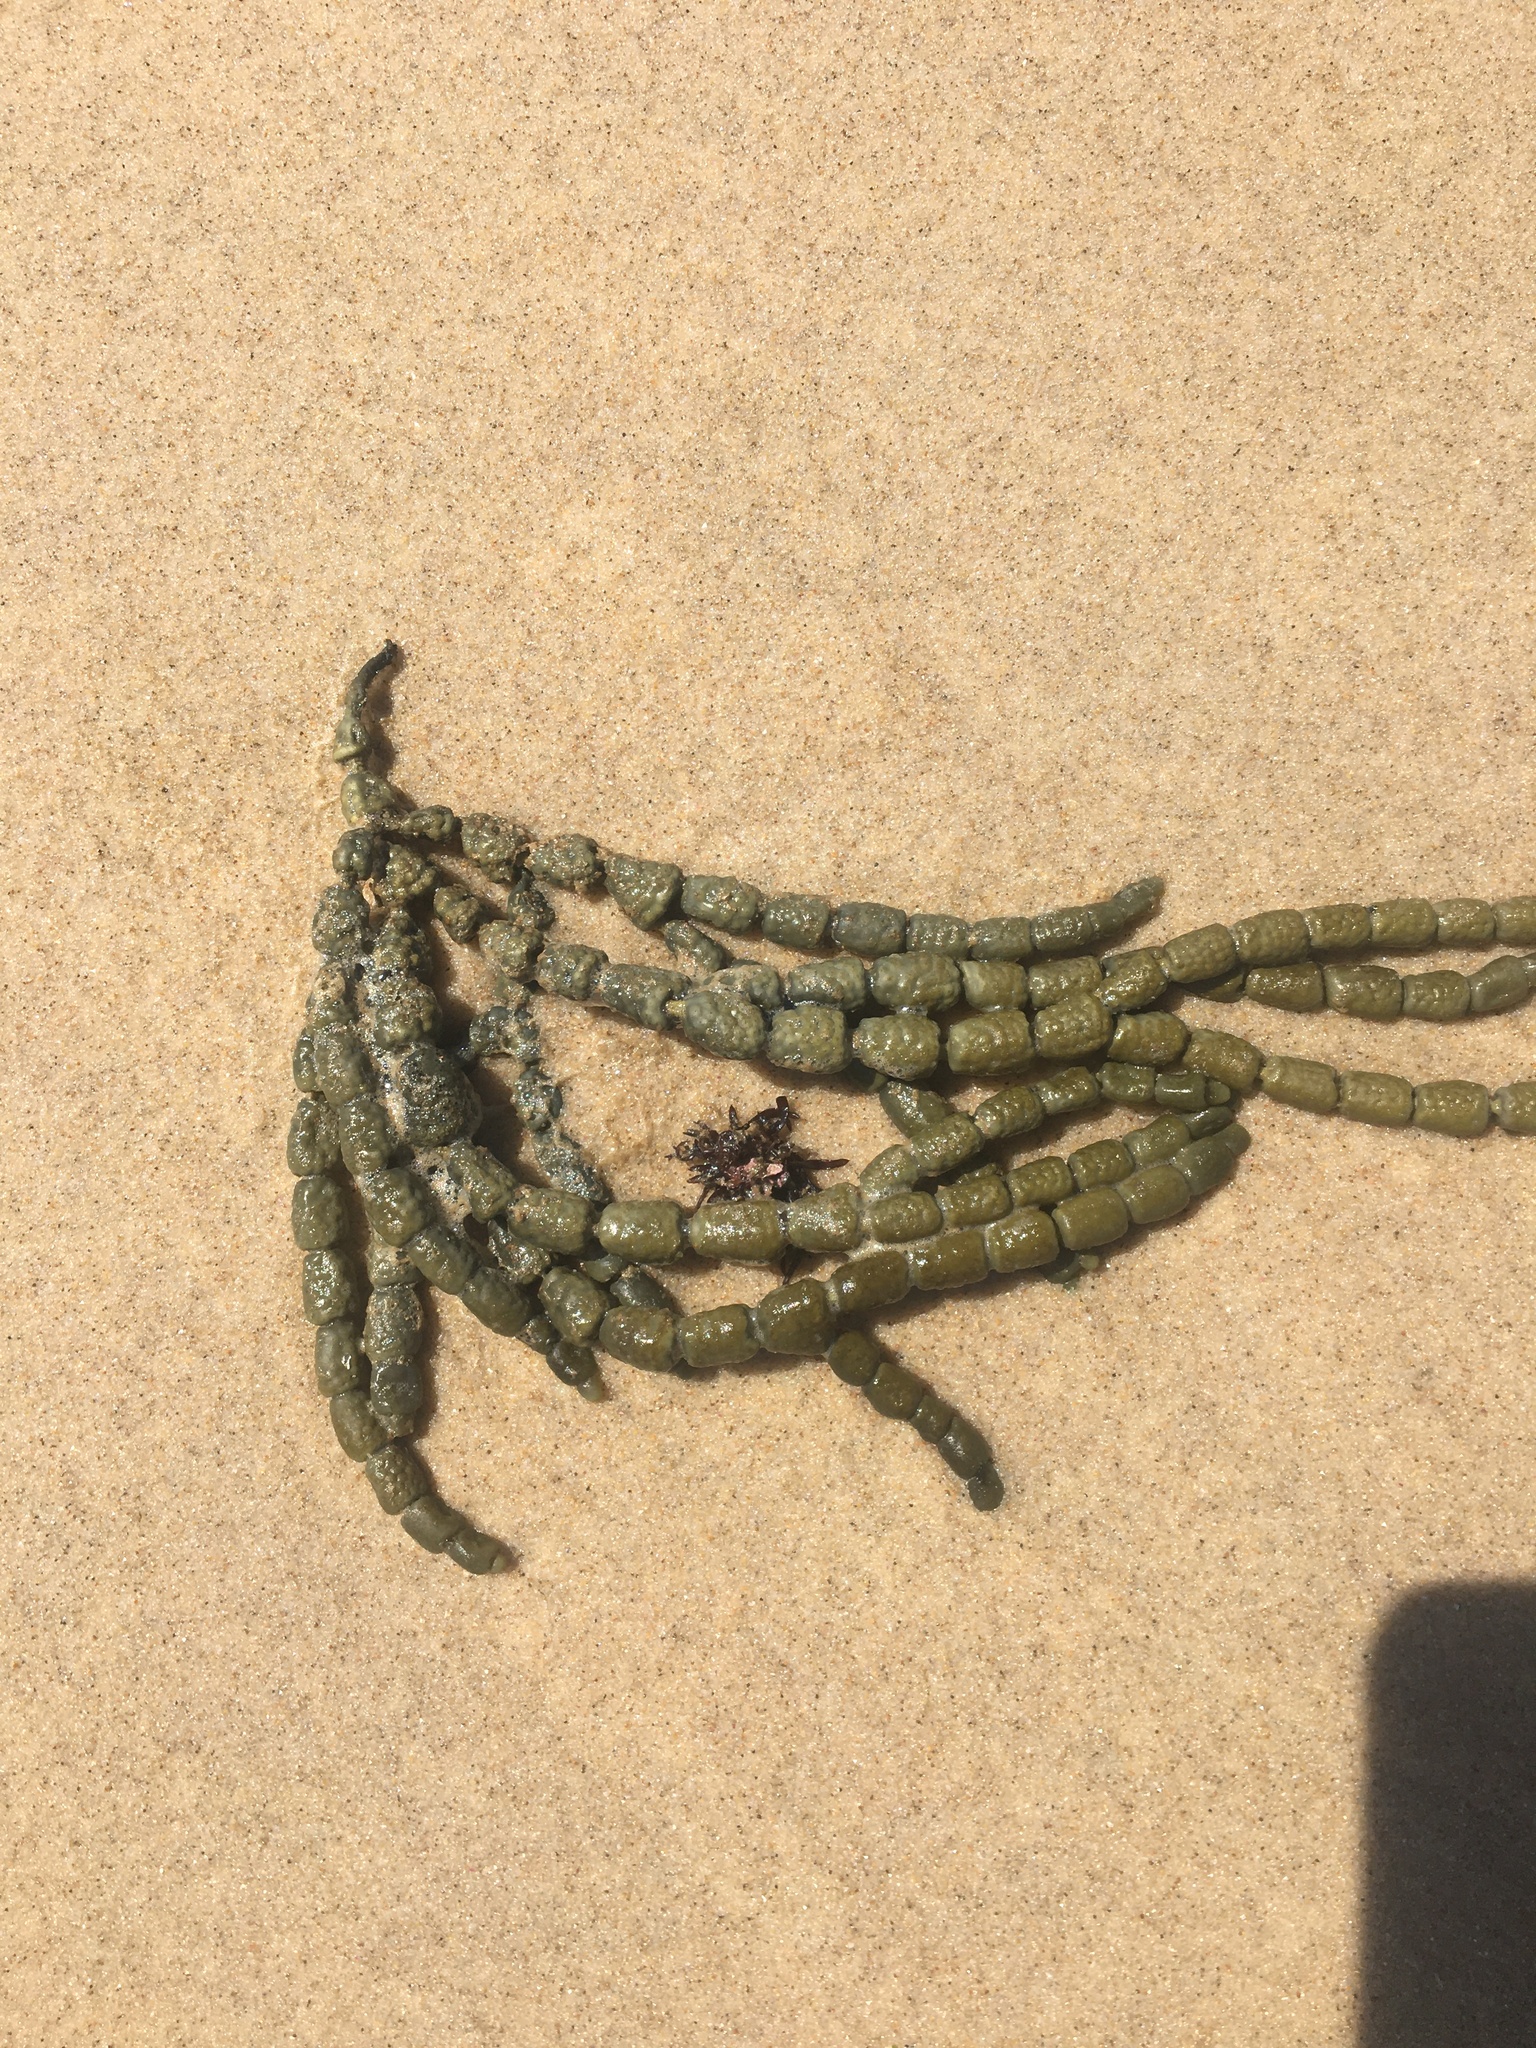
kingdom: Chromista
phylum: Ochrophyta
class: Phaeophyceae
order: Fucales
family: Hormosiraceae
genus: Hormosira
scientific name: Hormosira banksii
